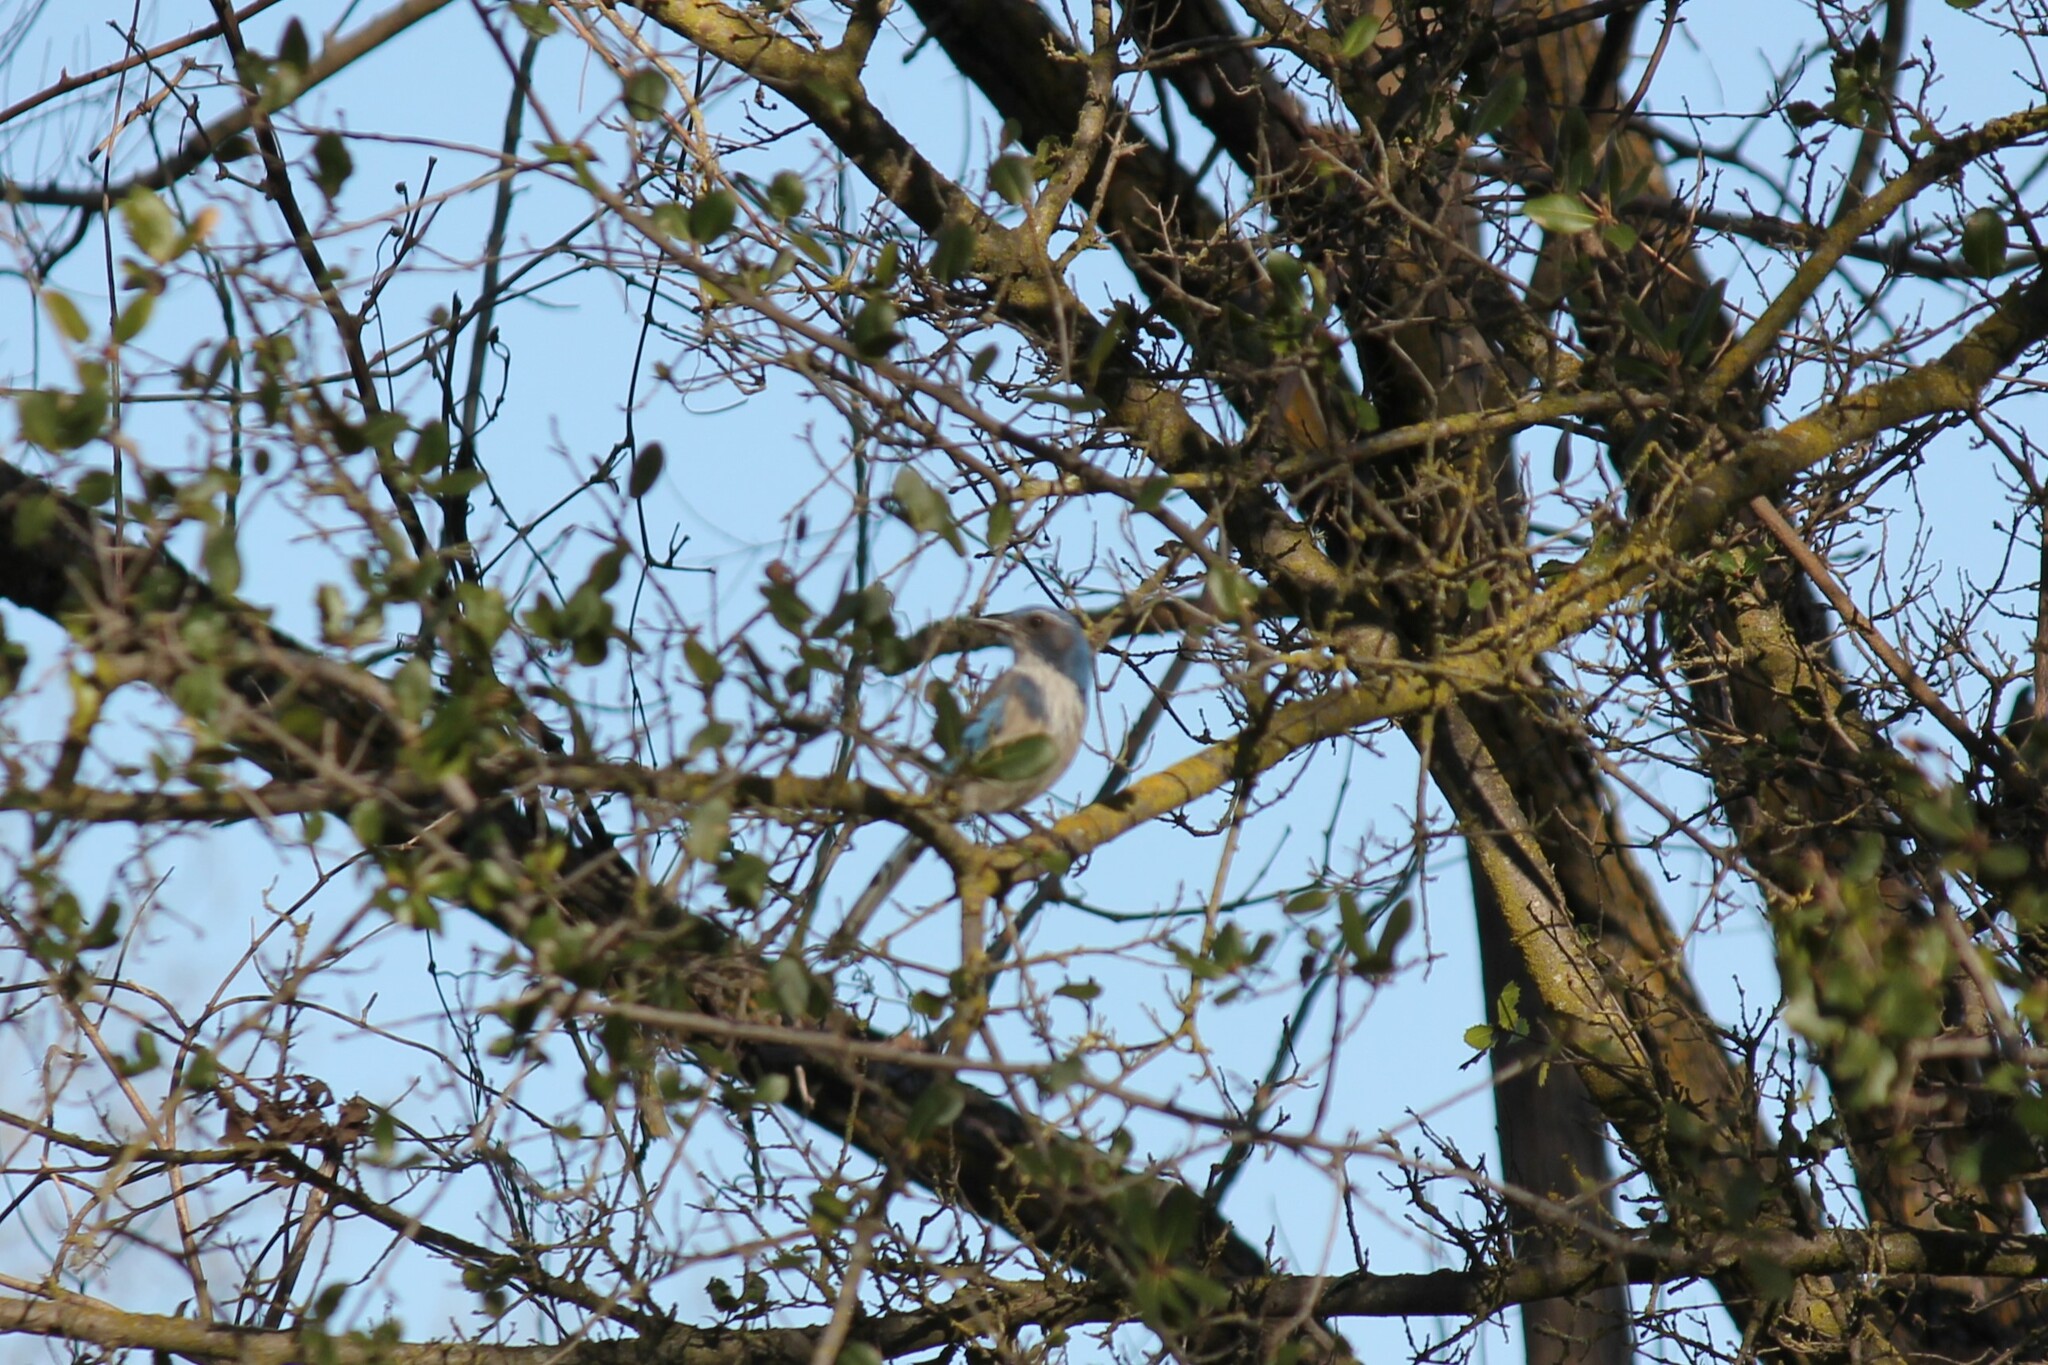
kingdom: Animalia
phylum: Chordata
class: Aves
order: Passeriformes
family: Corvidae
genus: Aphelocoma
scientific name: Aphelocoma californica
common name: California scrub-jay
